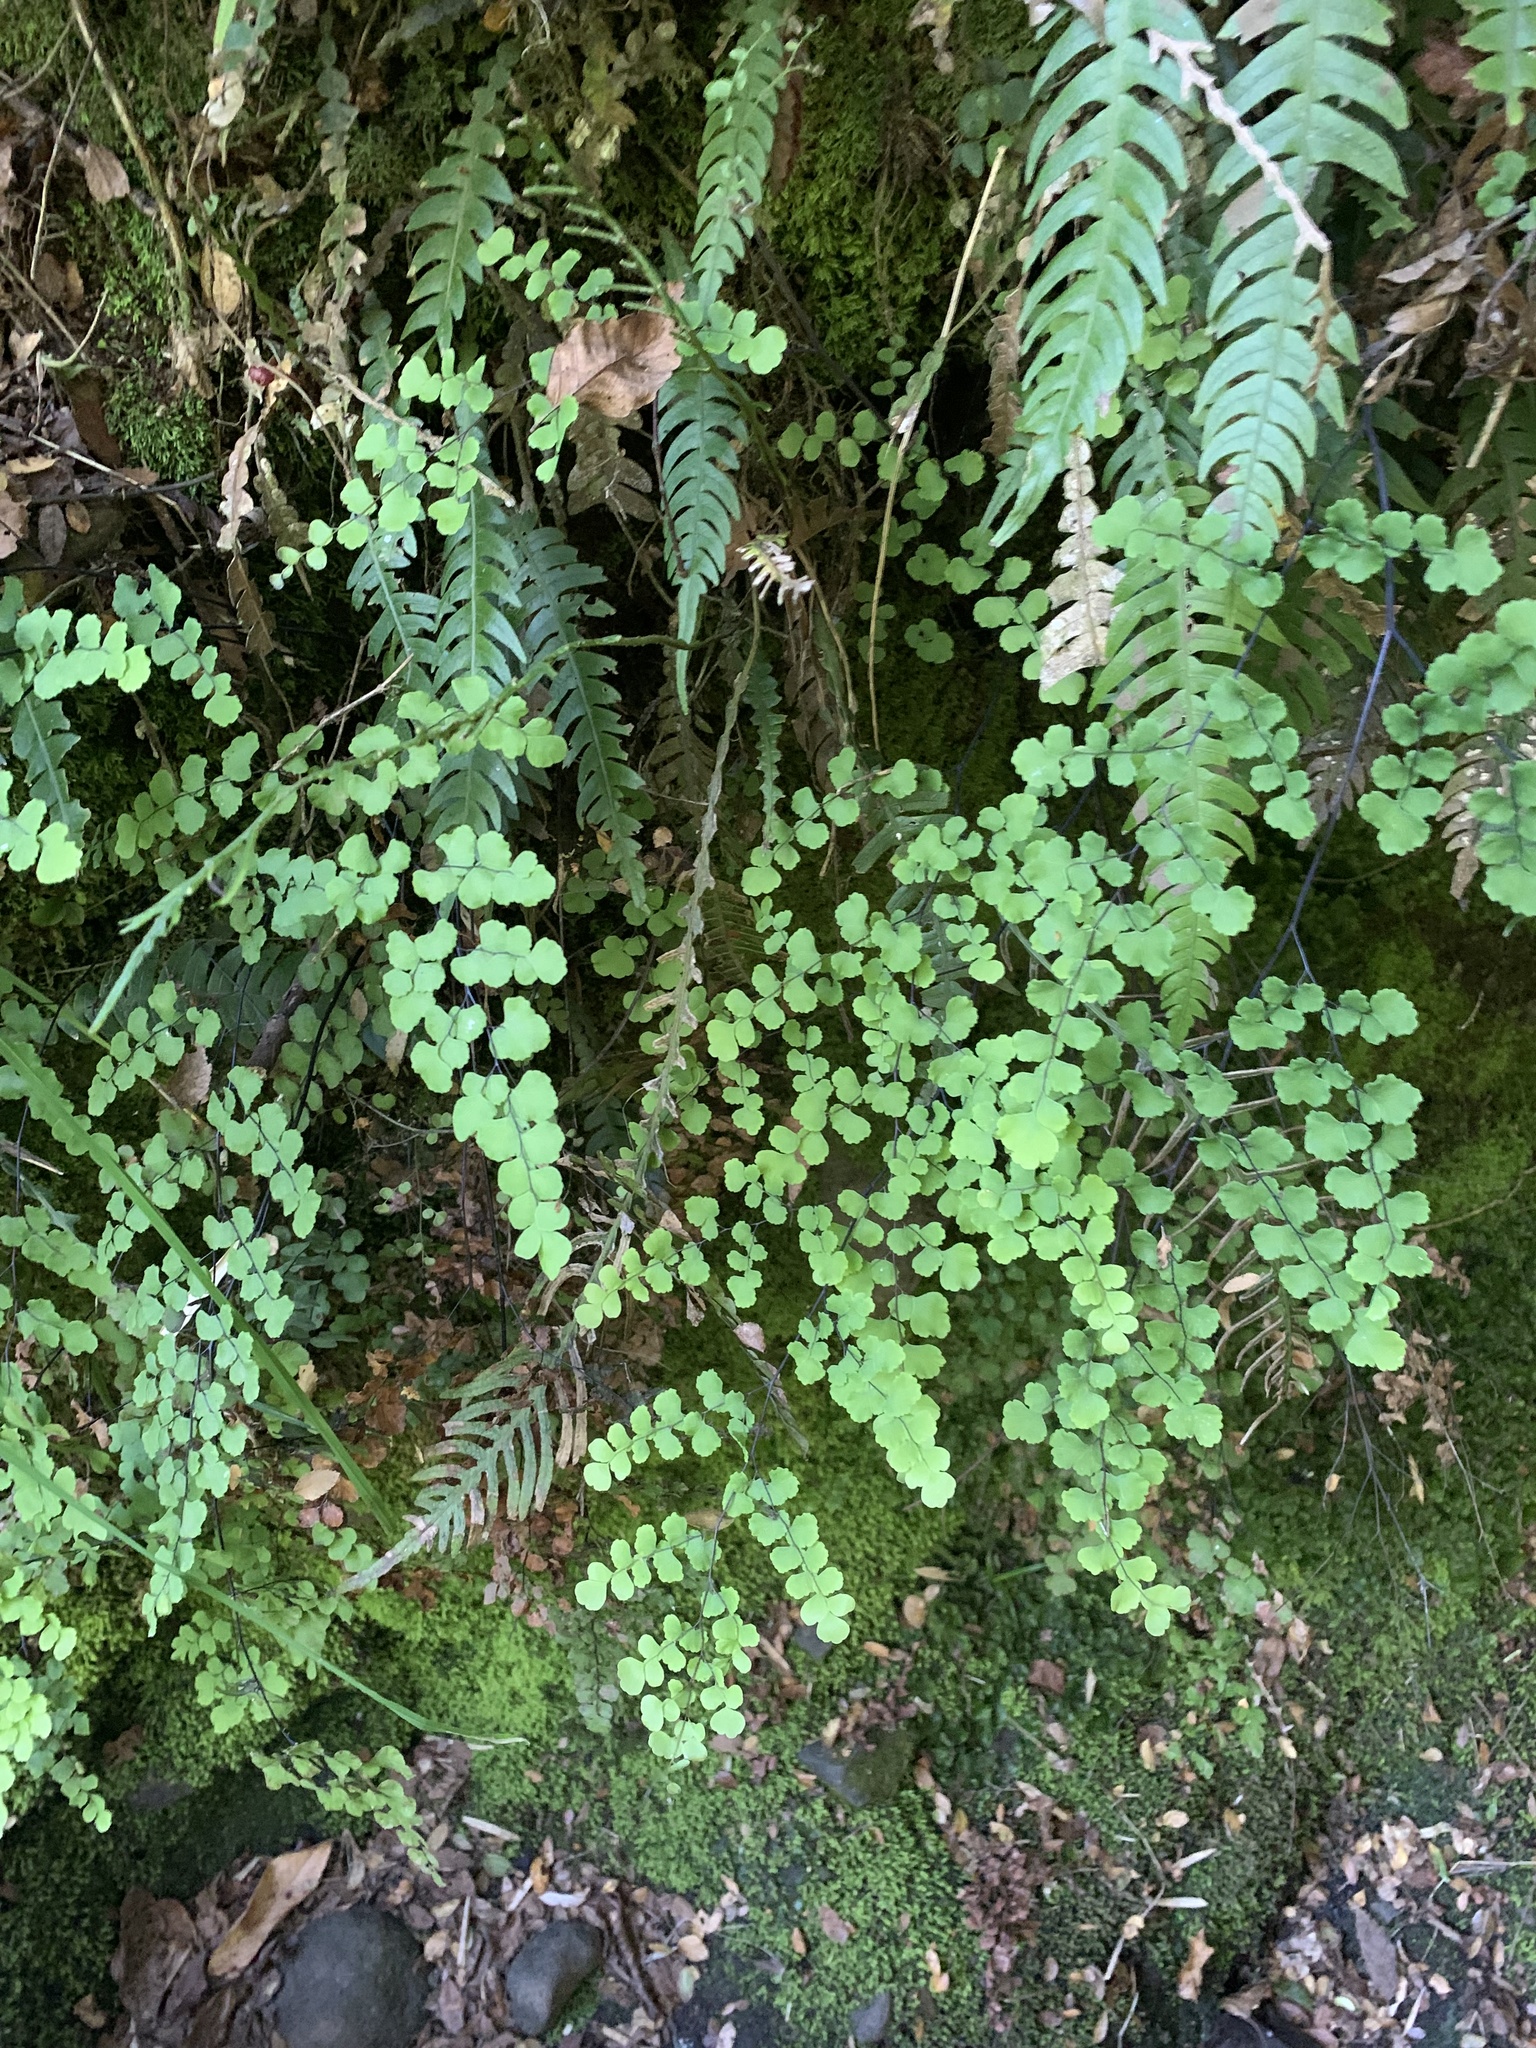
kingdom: Plantae
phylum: Tracheophyta
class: Polypodiopsida
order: Polypodiales
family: Pteridaceae
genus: Adiantum
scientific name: Adiantum chilense
